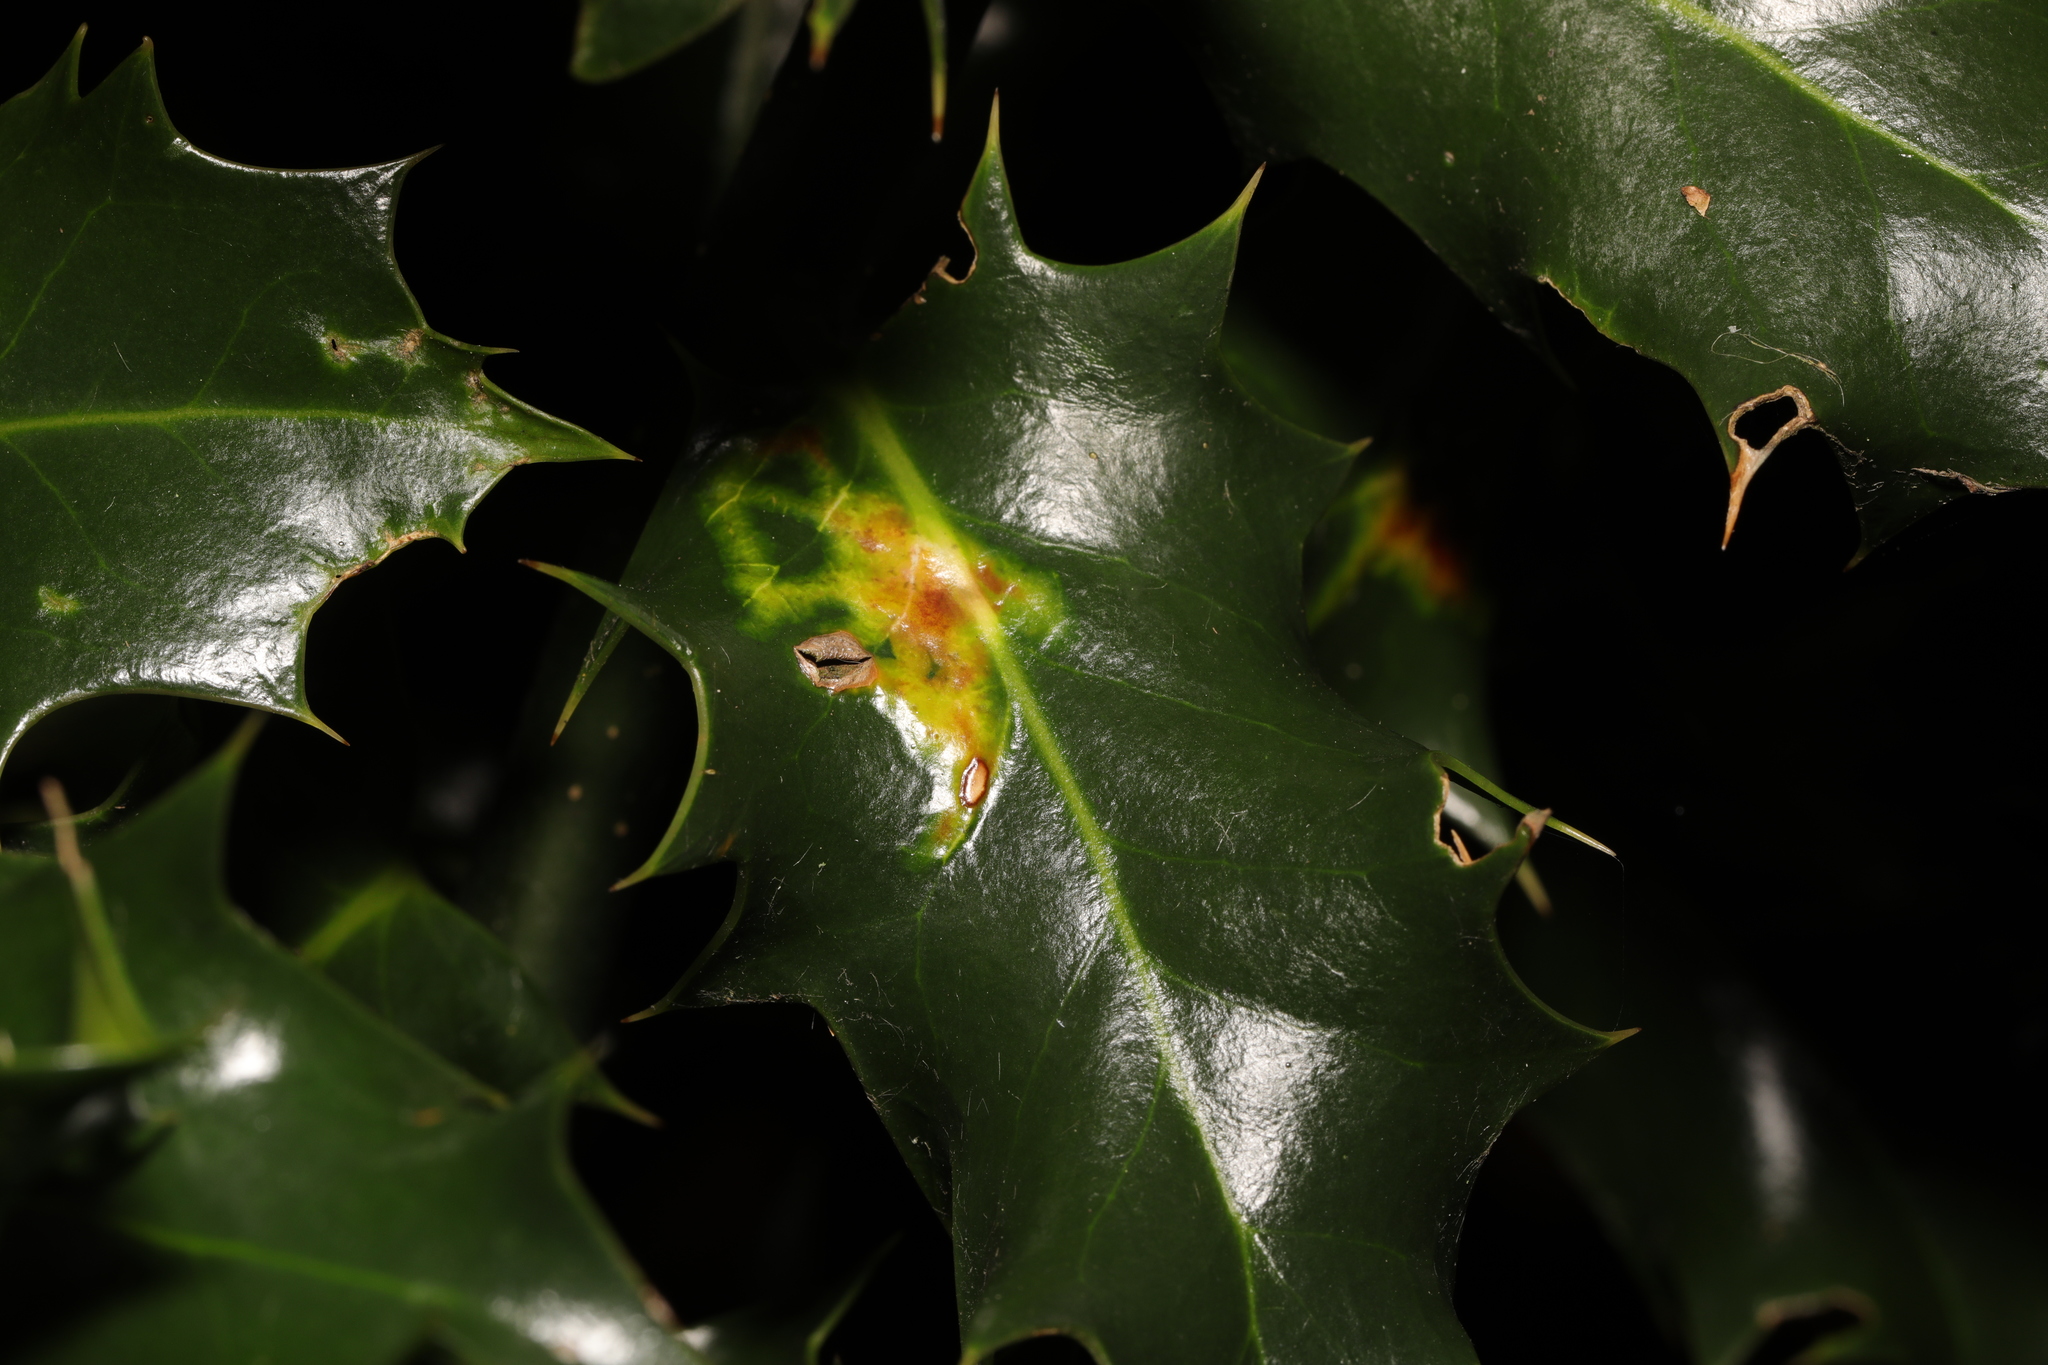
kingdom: Animalia
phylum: Arthropoda
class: Insecta
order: Diptera
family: Agromyzidae
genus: Phytomyza
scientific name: Phytomyza ilicis
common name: Holly leafminer
